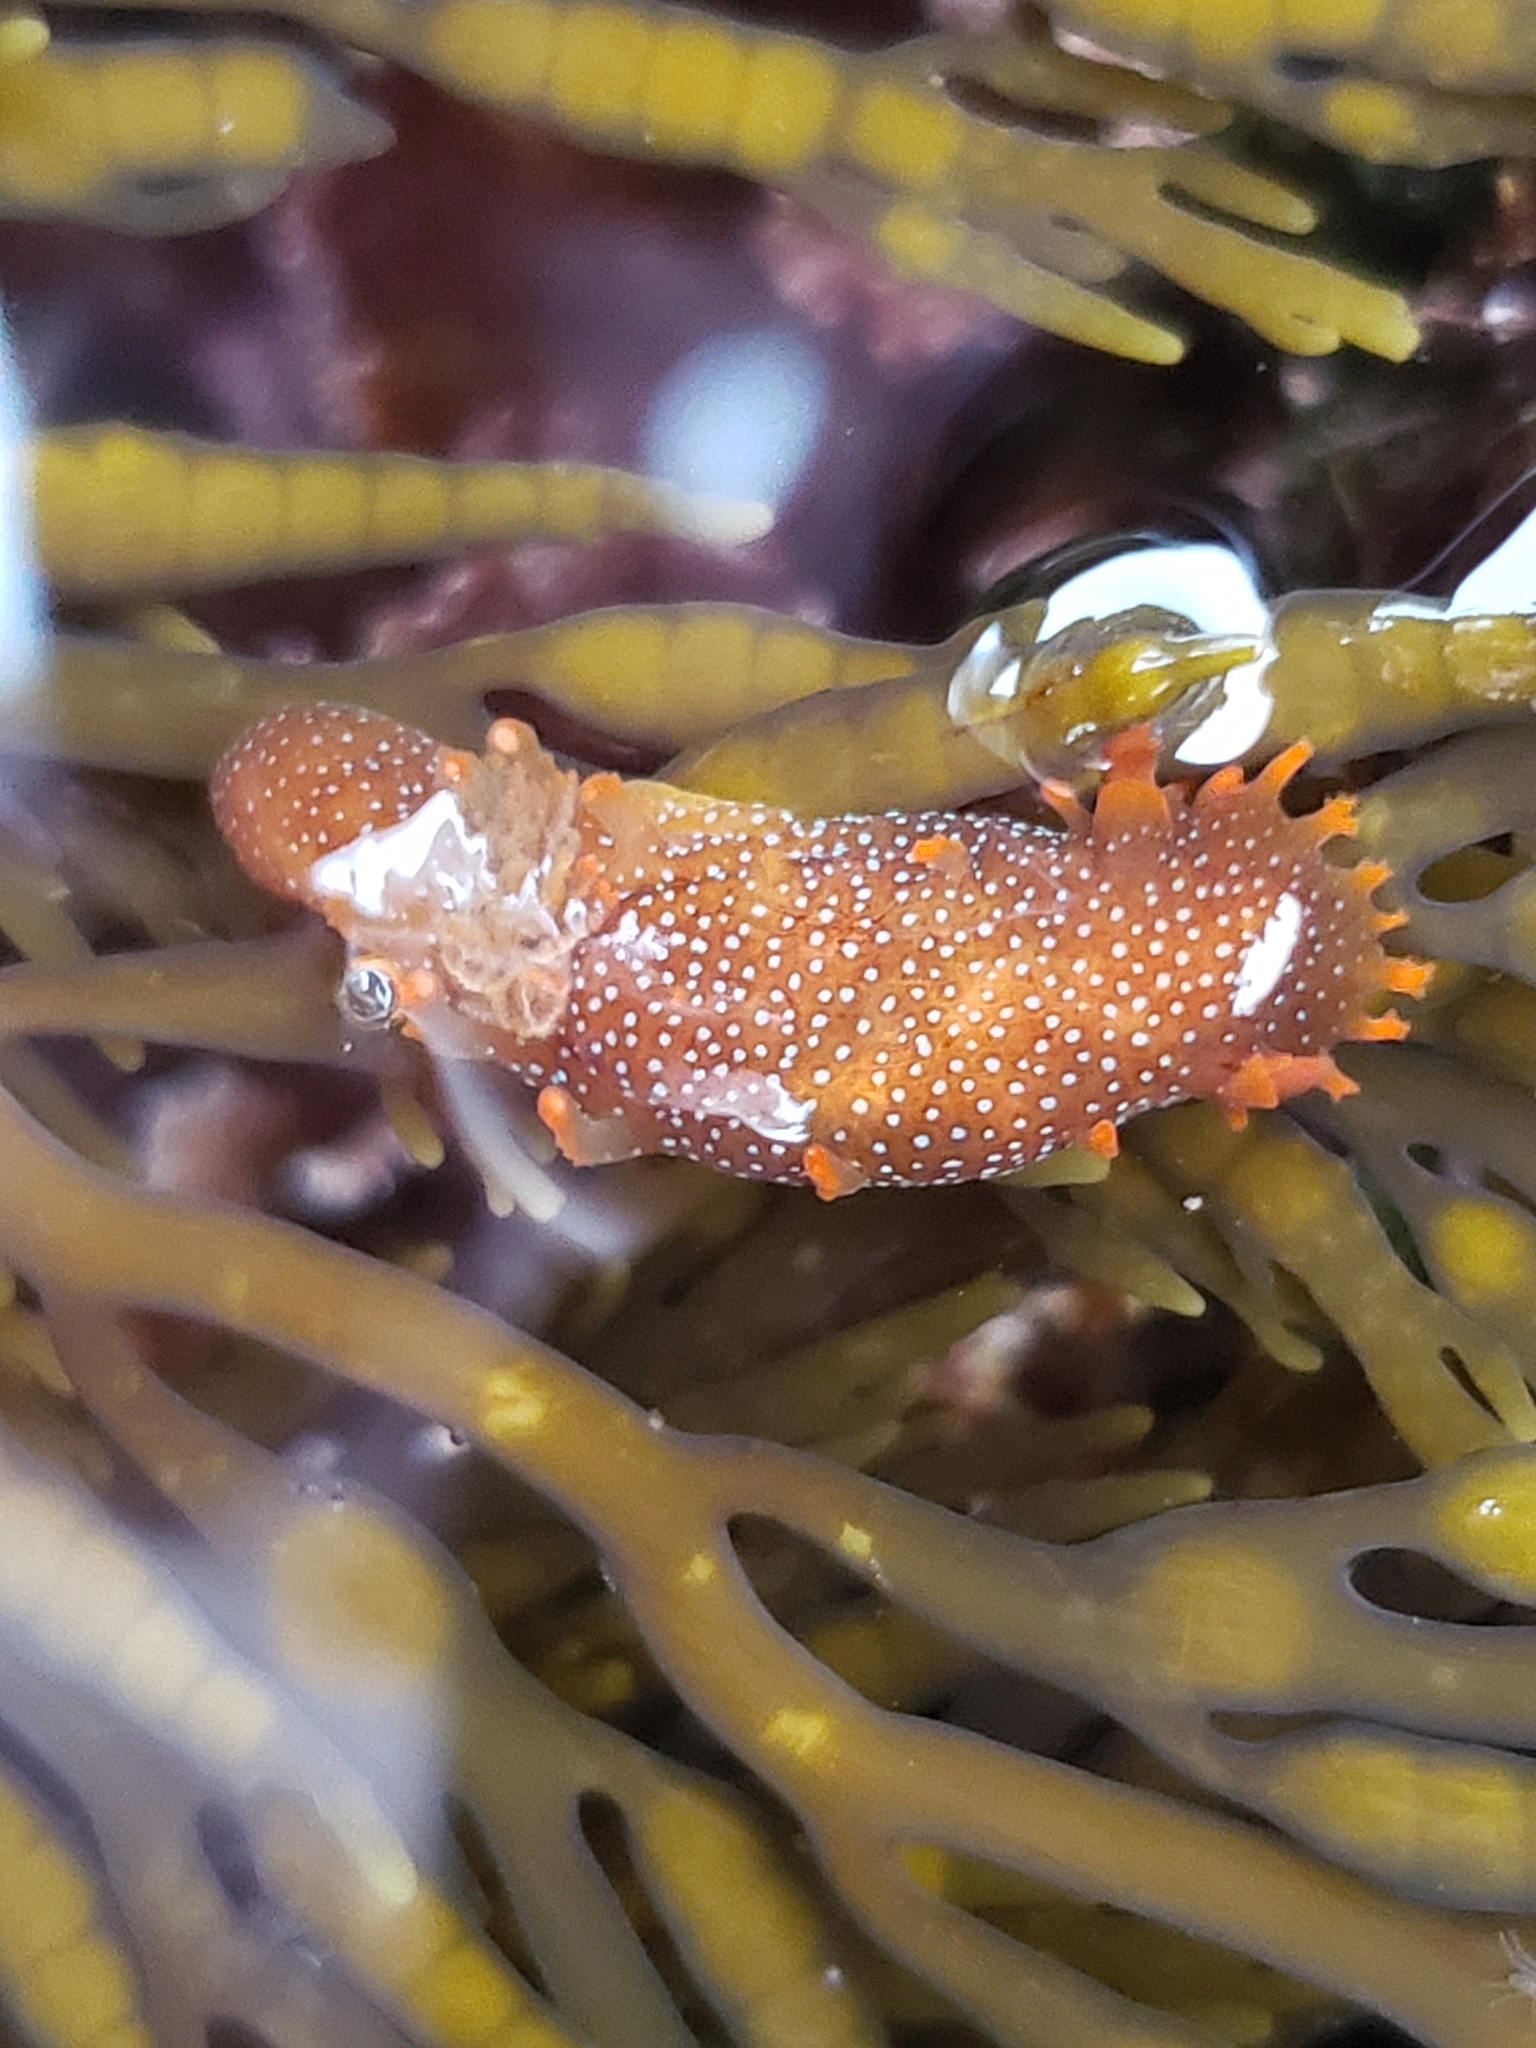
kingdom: Animalia
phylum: Mollusca
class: Gastropoda
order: Nudibranchia
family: Polyceridae
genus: Triopha
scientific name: Triopha maculata
